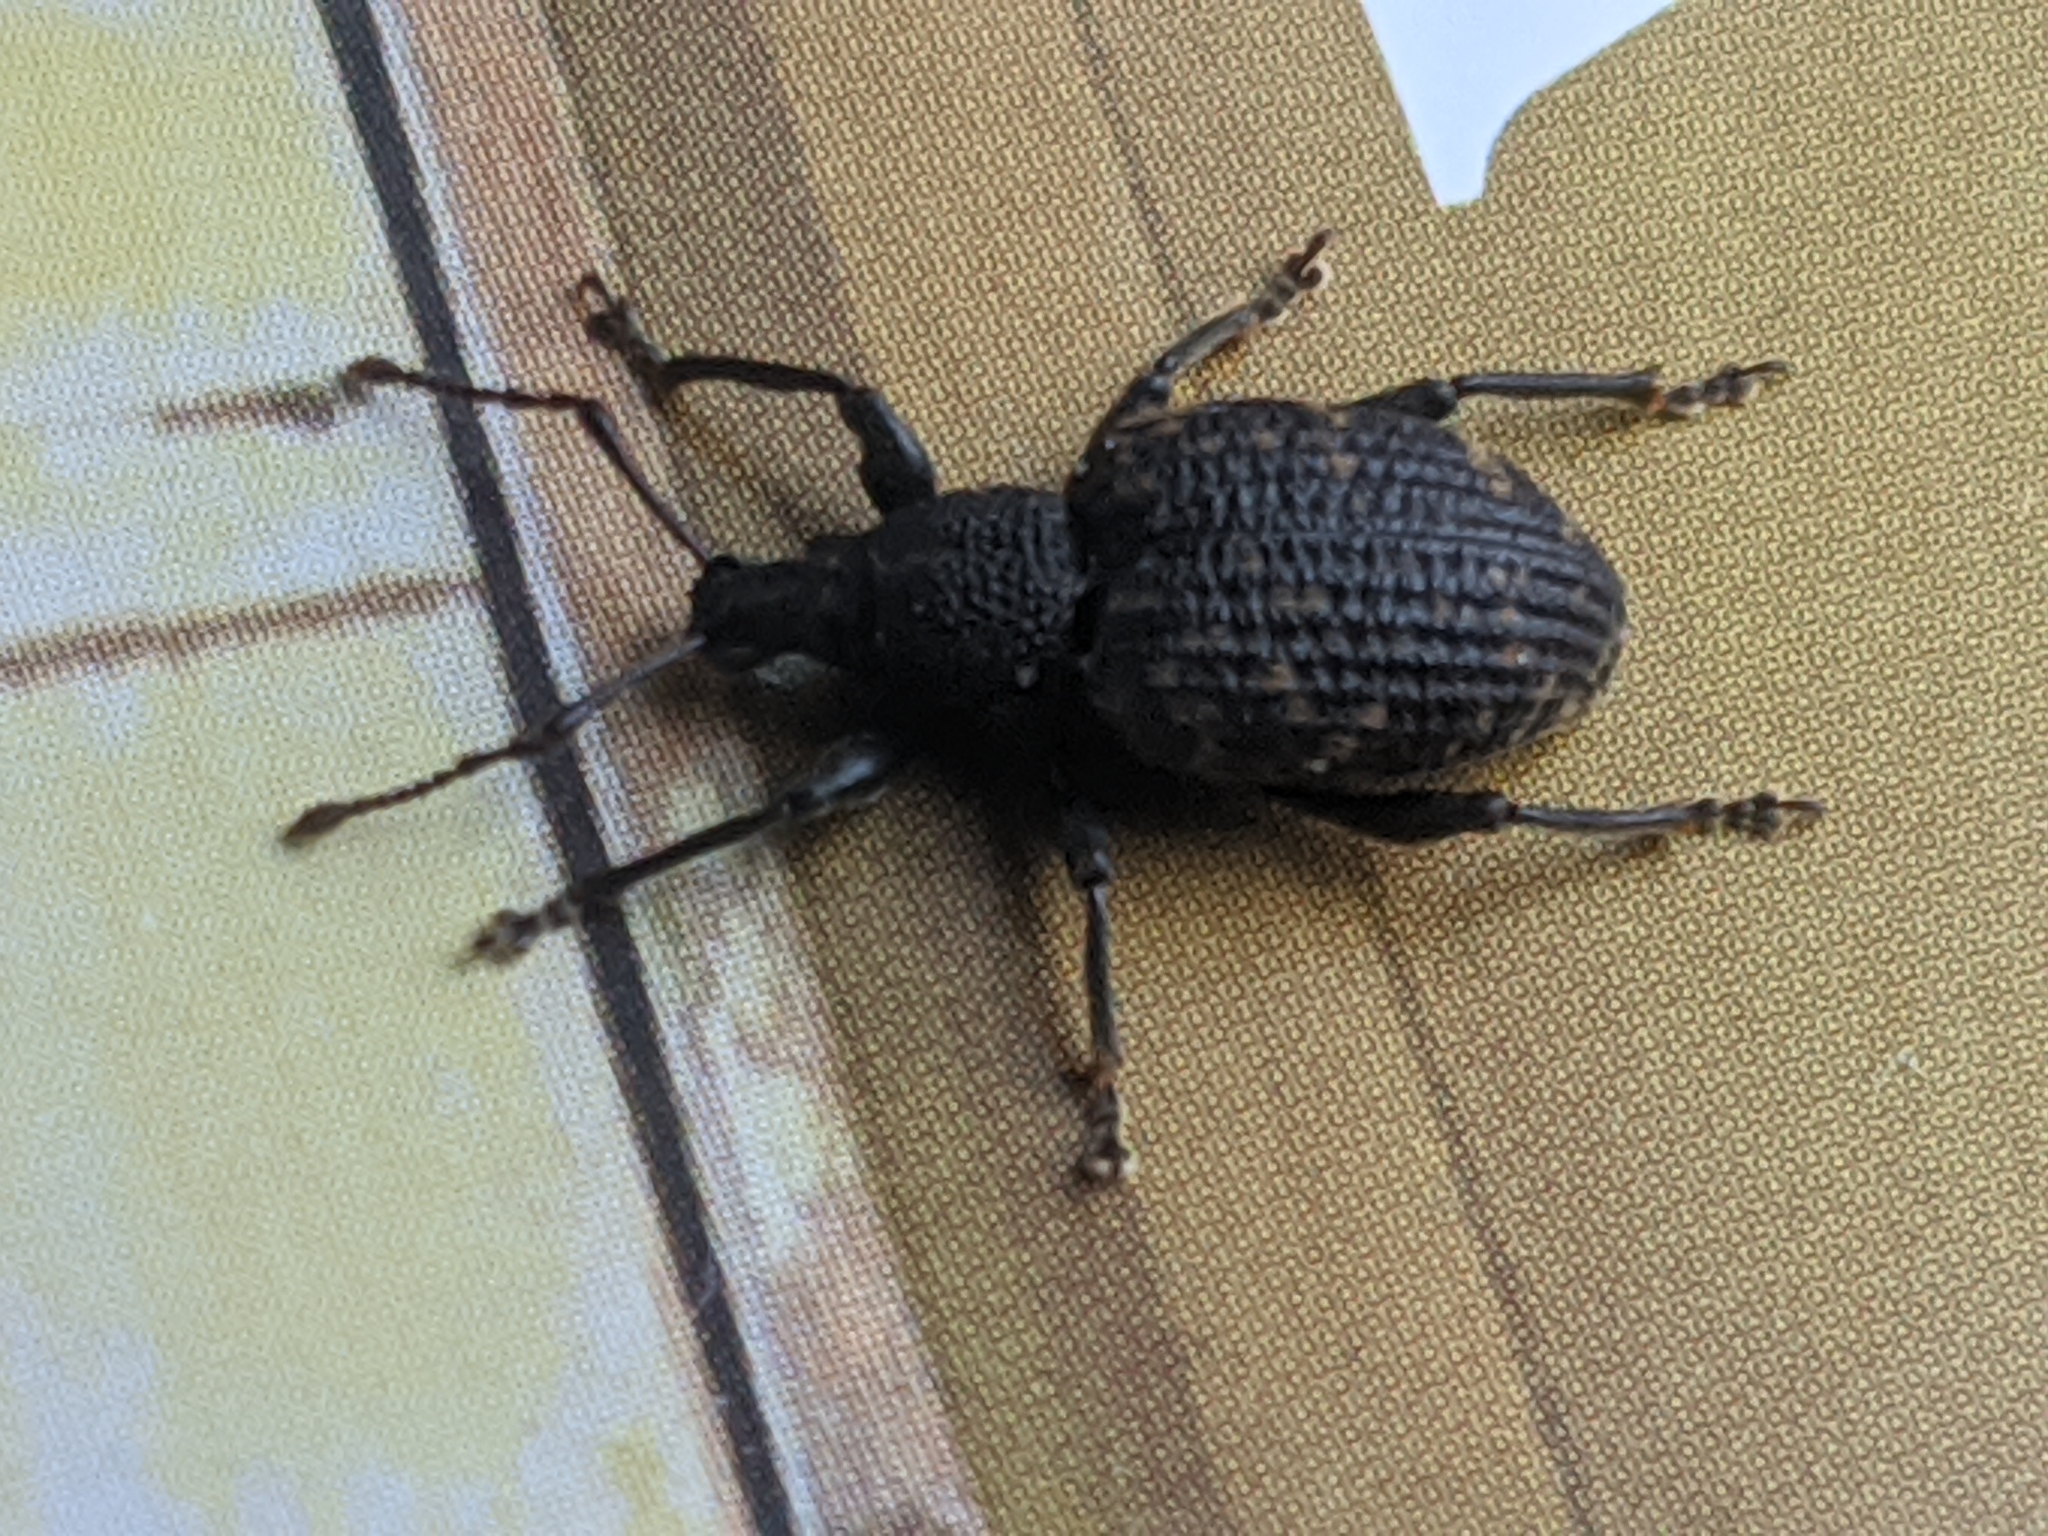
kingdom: Animalia
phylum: Arthropoda
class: Insecta
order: Coleoptera
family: Curculionidae
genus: Otiorhynchus
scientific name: Otiorhynchus sulcatus
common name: Black vine weevil
